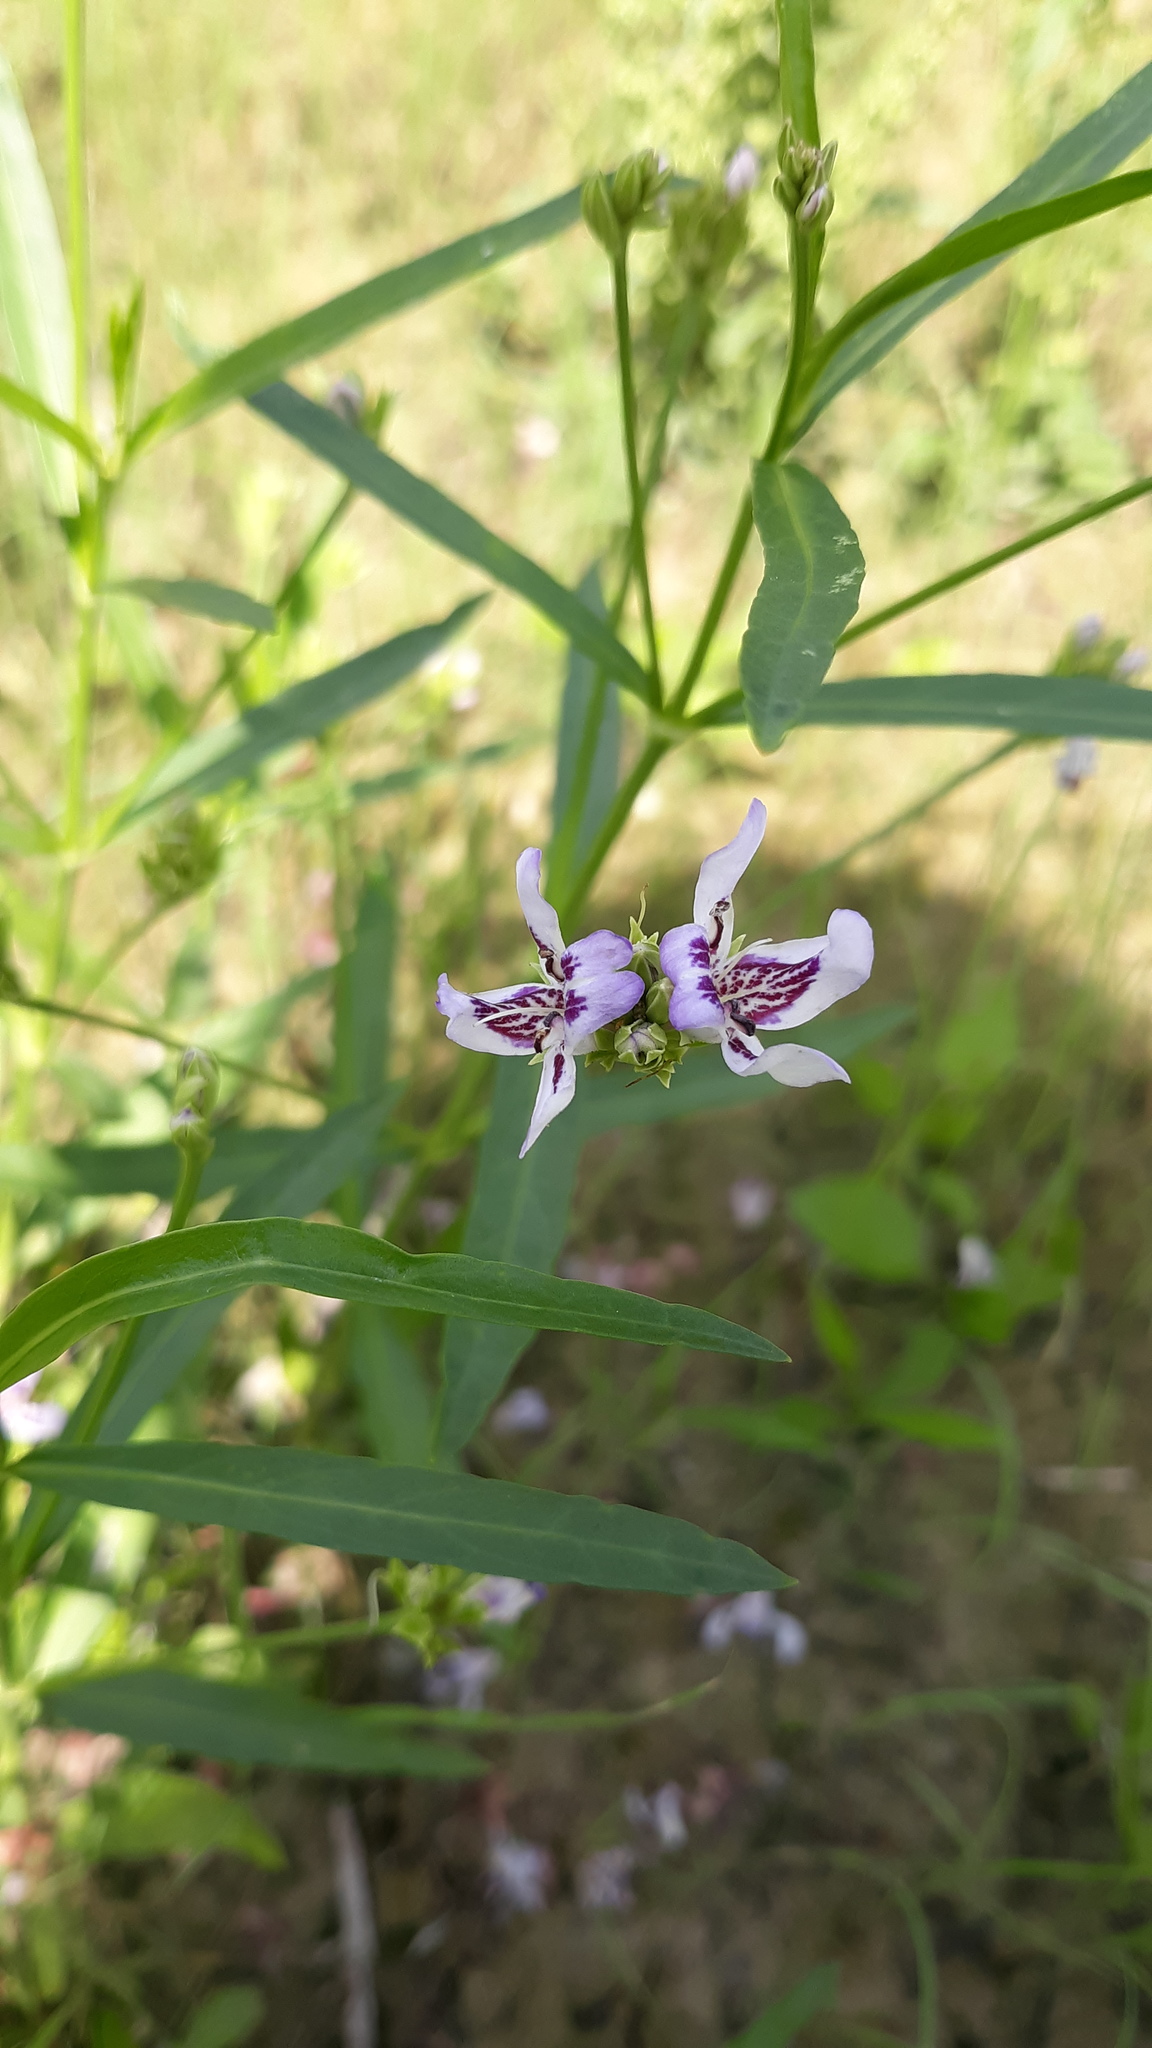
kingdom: Plantae
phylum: Tracheophyta
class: Magnoliopsida
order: Lamiales
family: Acanthaceae
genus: Dianthera
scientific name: Dianthera americana
